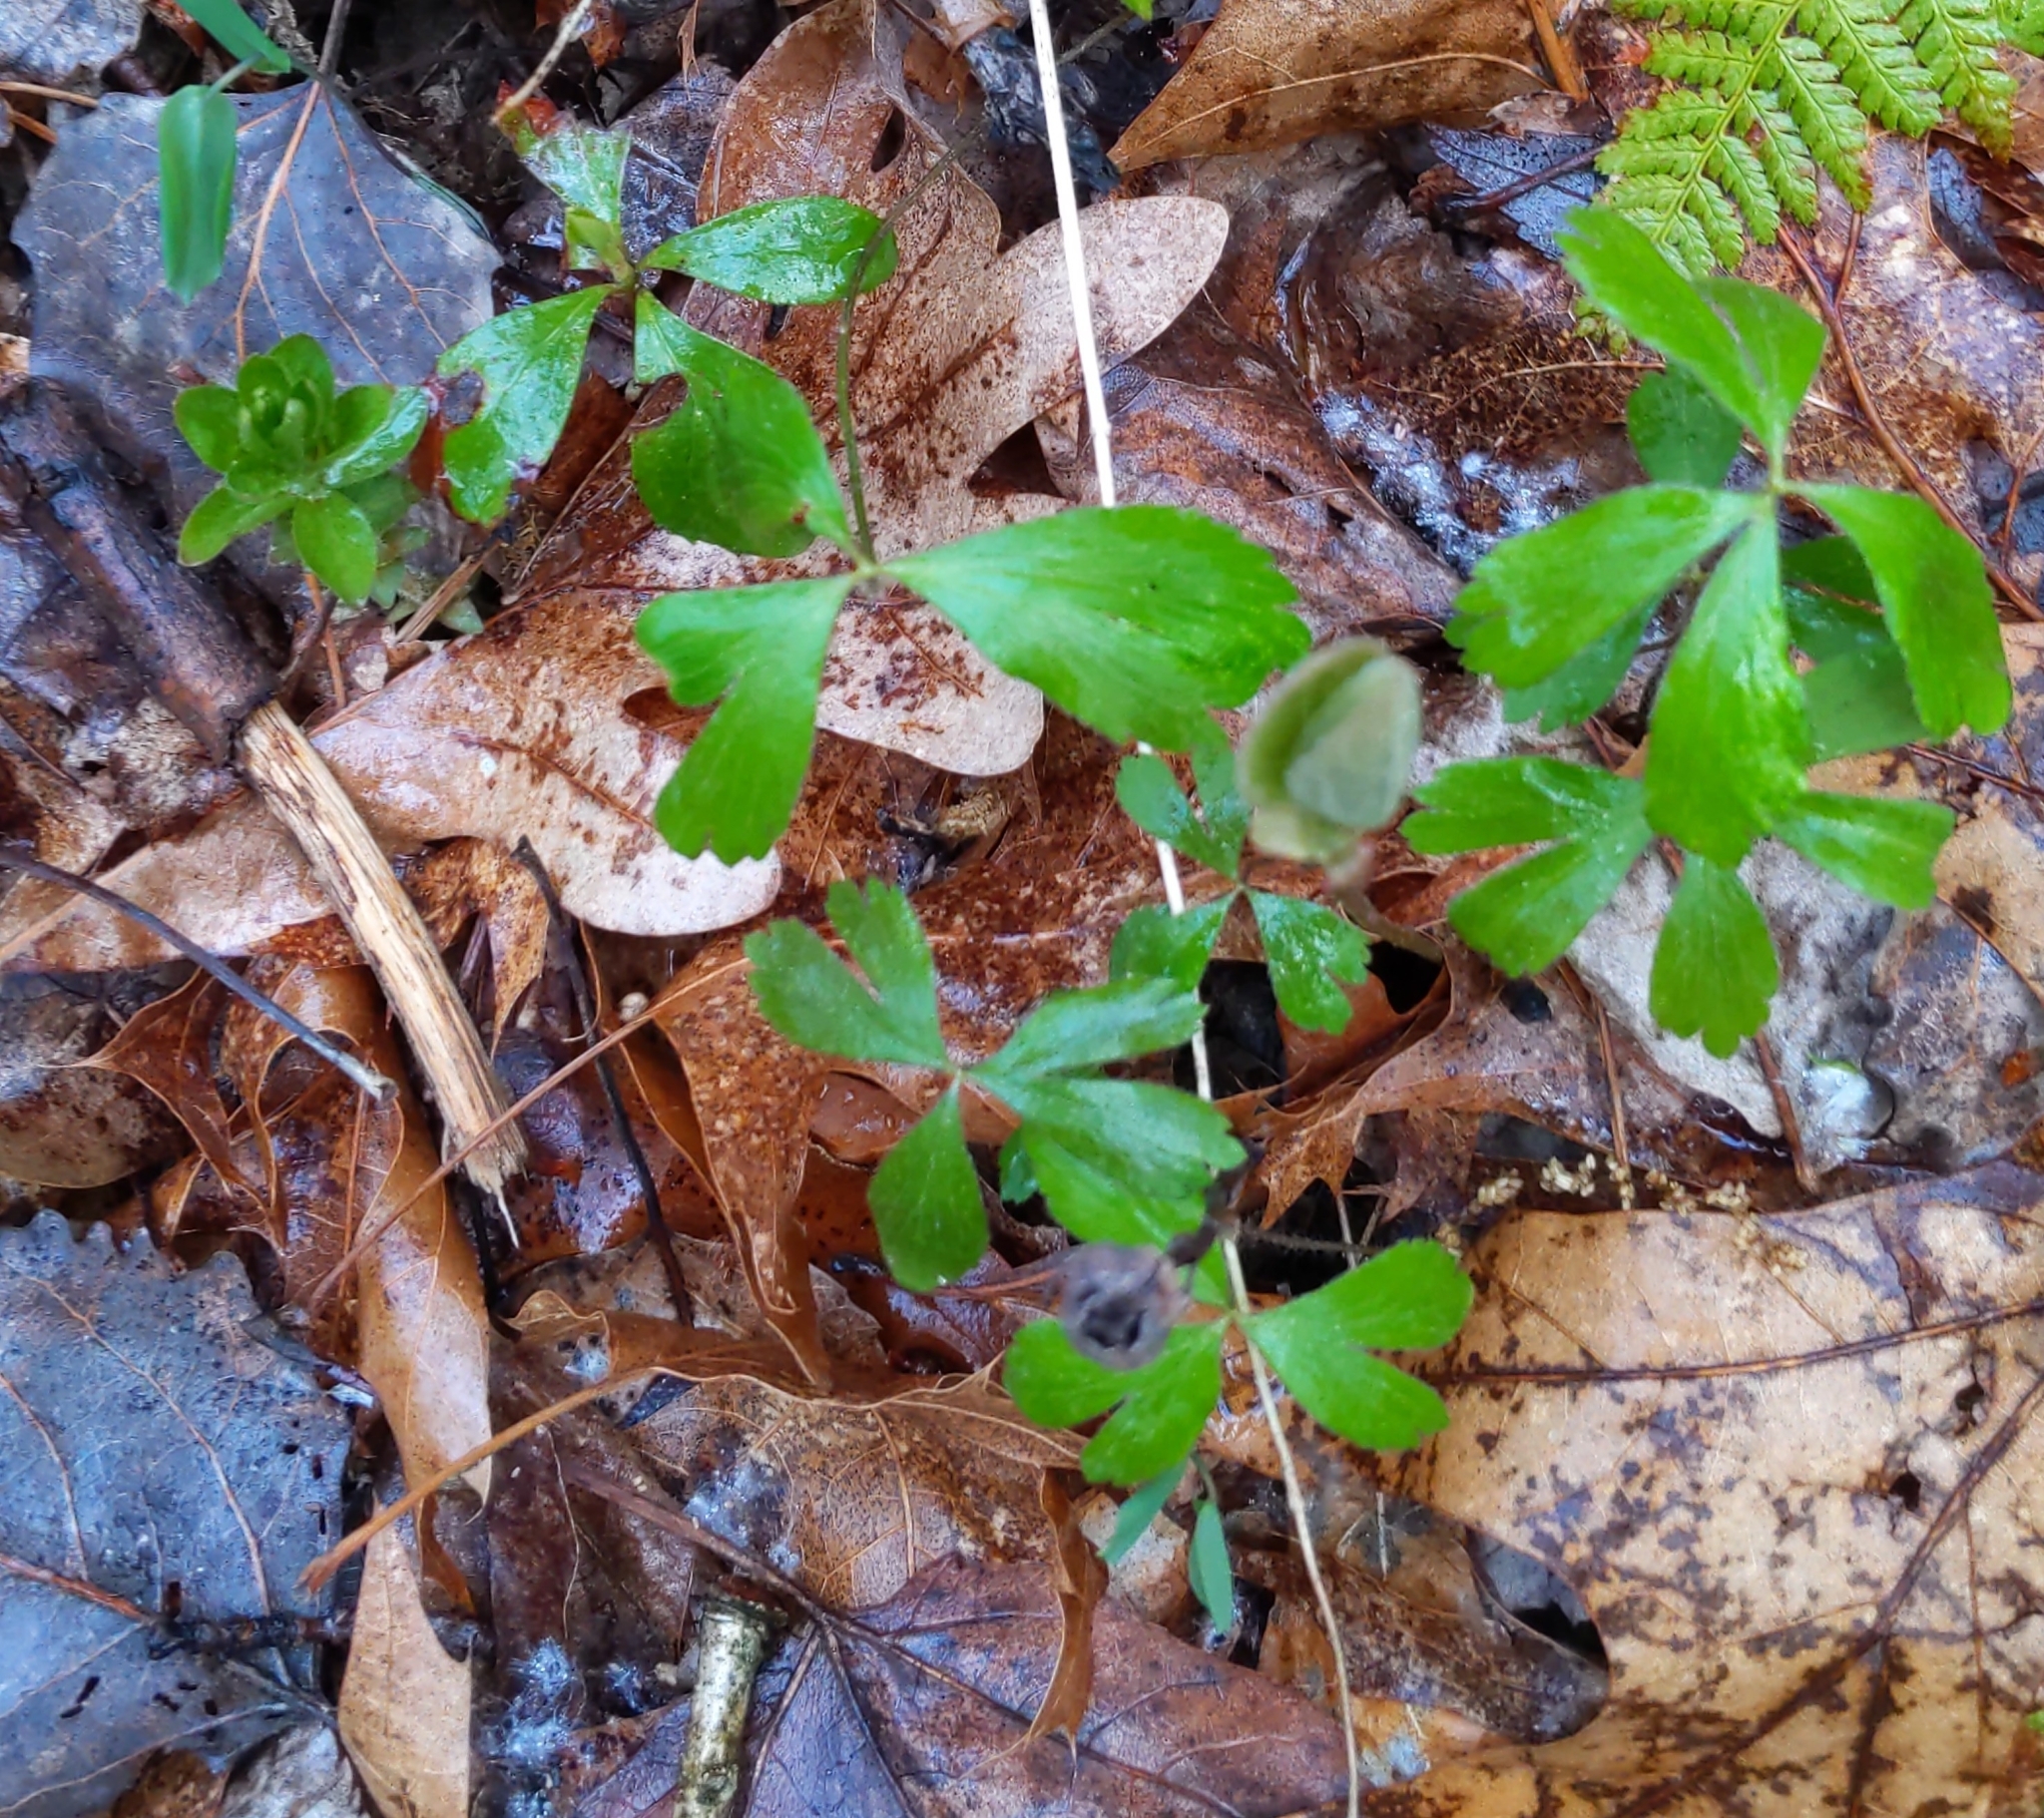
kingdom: Plantae
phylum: Tracheophyta
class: Magnoliopsida
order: Ranunculales
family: Ranunculaceae
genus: Anemone
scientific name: Anemone quinquefolia
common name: Wood anemone
